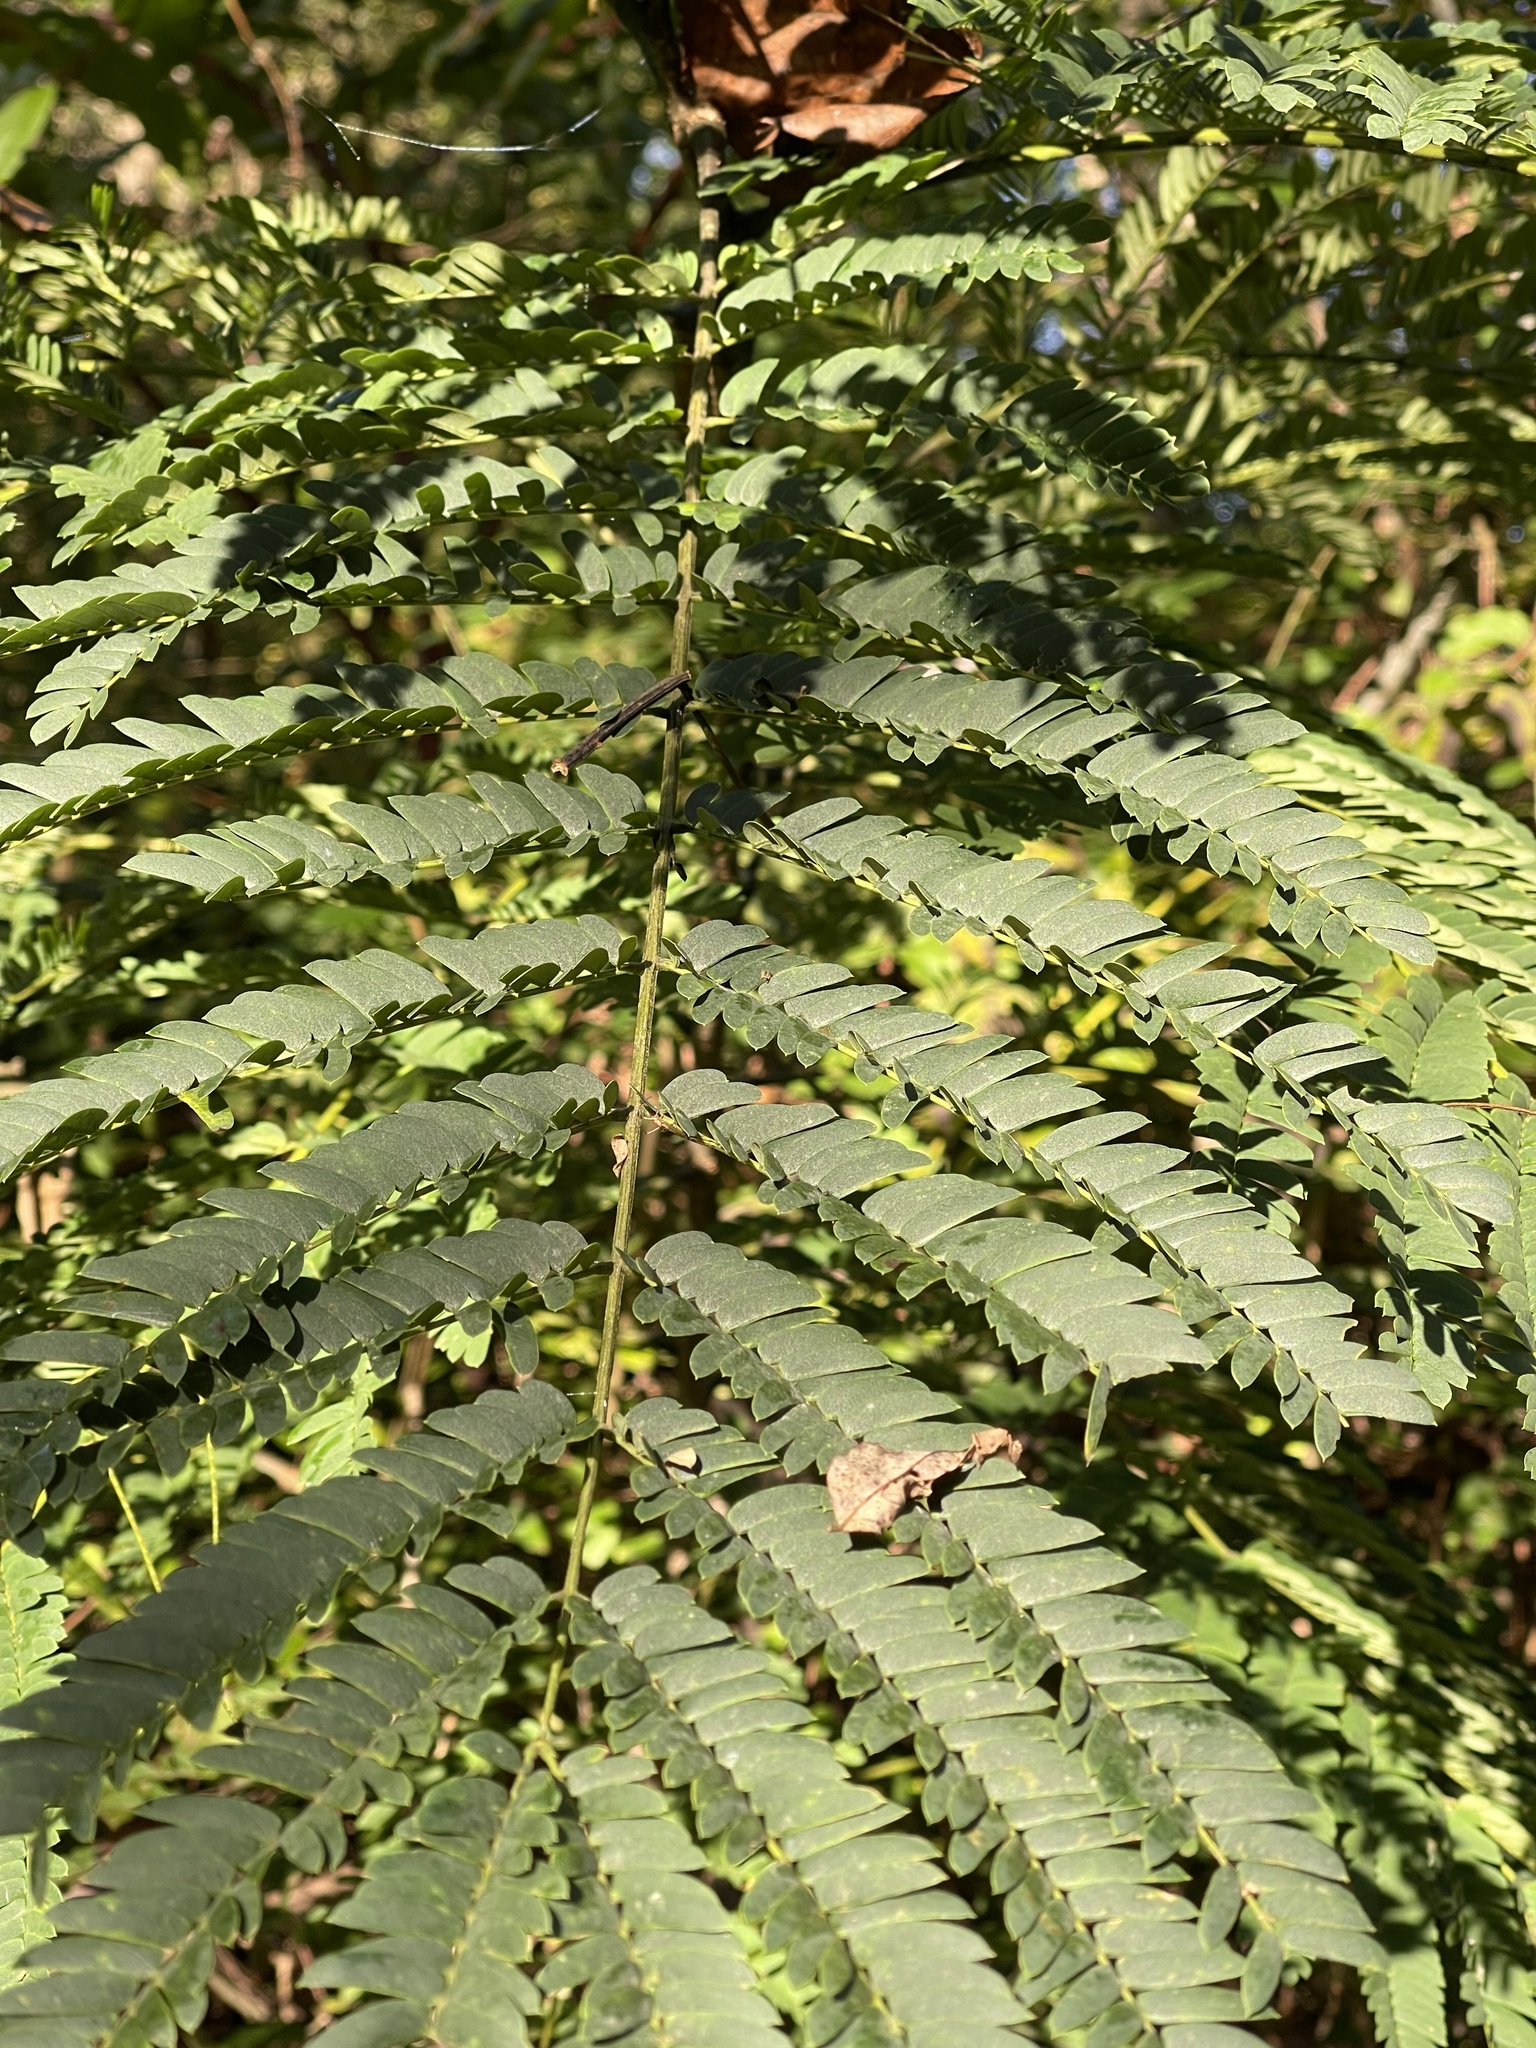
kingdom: Plantae
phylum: Tracheophyta
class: Magnoliopsida
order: Fabales
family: Fabaceae
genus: Albizia
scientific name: Albizia julibrissin
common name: Silktree
